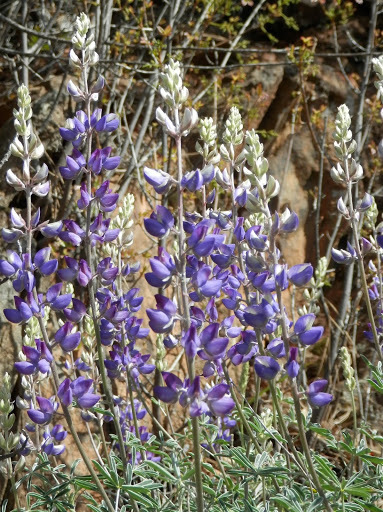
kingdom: Plantae
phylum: Tracheophyta
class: Magnoliopsida
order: Fabales
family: Fabaceae
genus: Lupinus
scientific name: Lupinus benthamii
